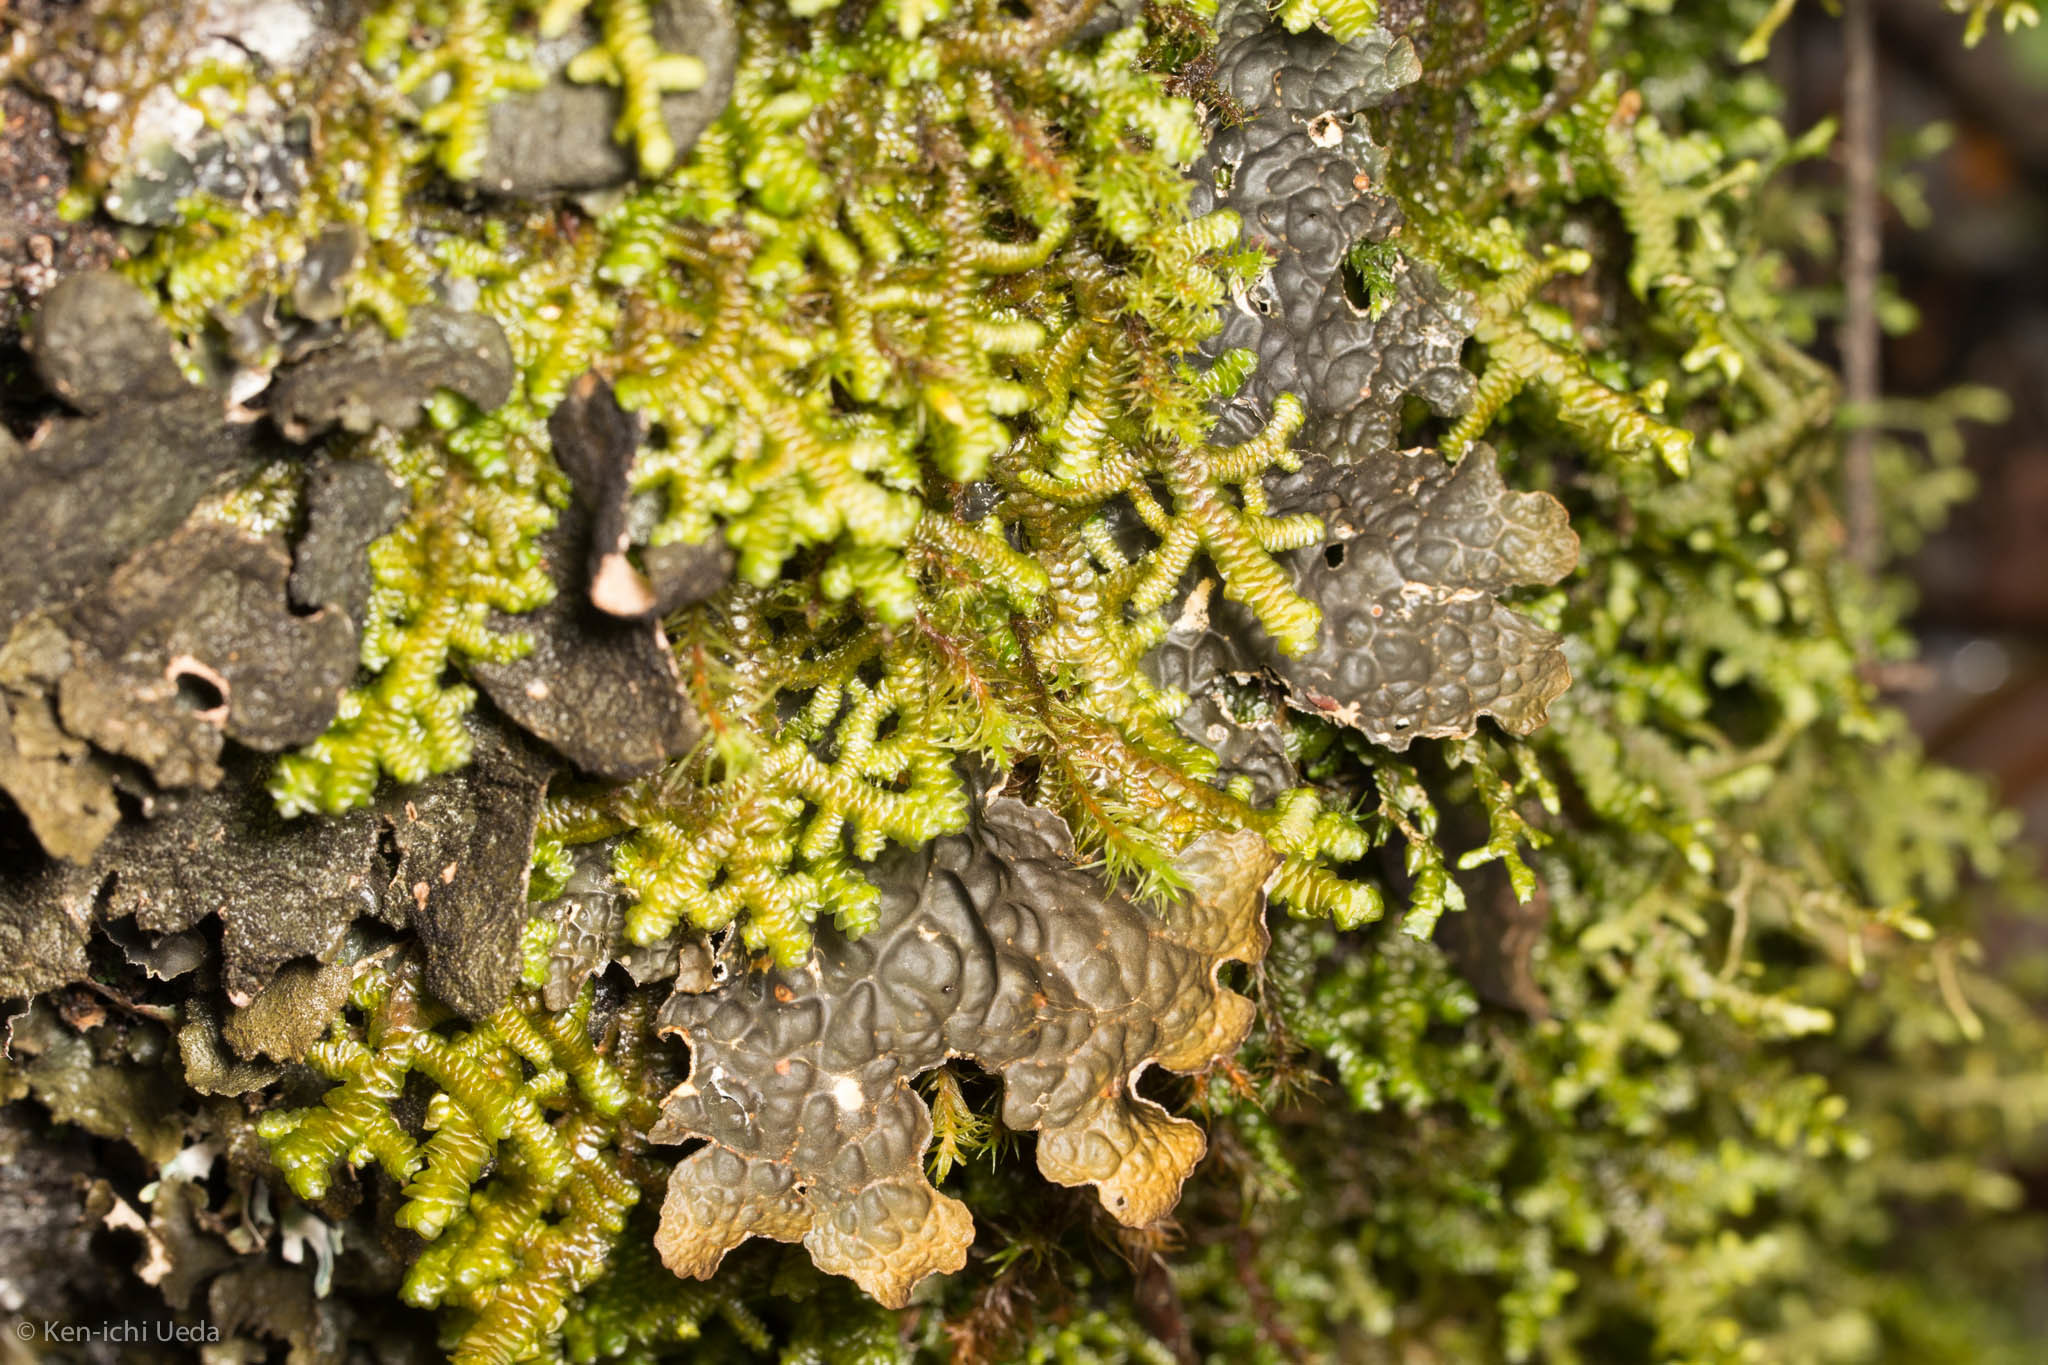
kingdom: Fungi
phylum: Ascomycota
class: Lecanoromycetes
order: Peltigerales
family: Lobariaceae
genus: Lobaria
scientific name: Lobaria anthraspis
